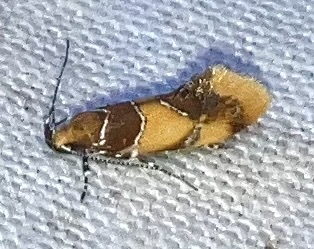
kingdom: Animalia
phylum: Arthropoda
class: Insecta
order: Lepidoptera
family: Oecophoridae
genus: Callima
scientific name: Callima argenticinctella
